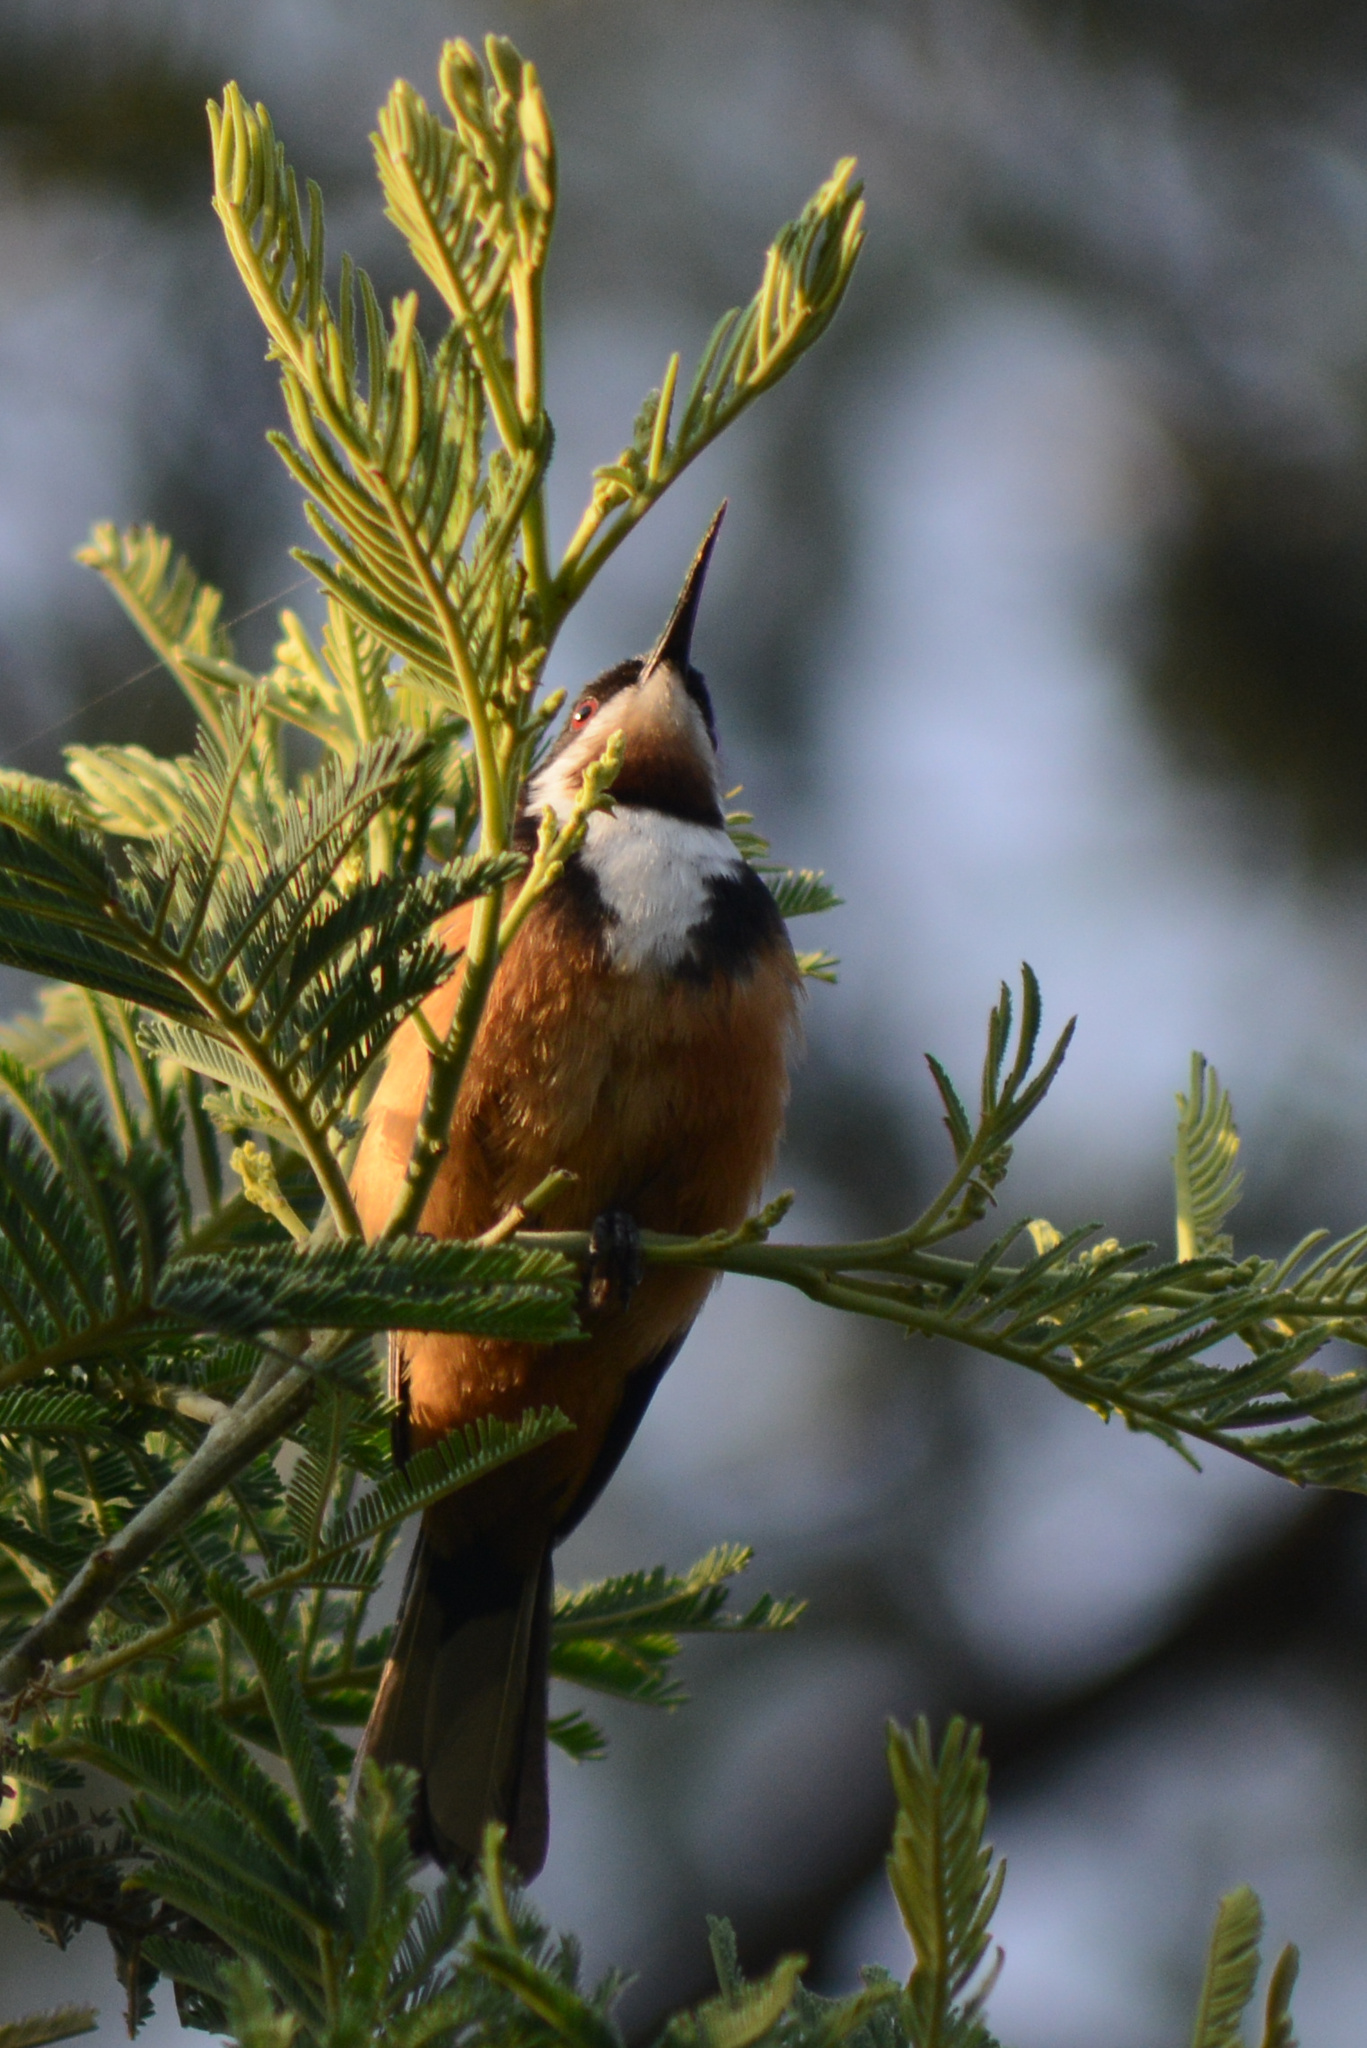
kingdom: Animalia
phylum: Chordata
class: Aves
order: Passeriformes
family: Meliphagidae
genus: Acanthorhynchus
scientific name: Acanthorhynchus tenuirostris
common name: Eastern spinebill
